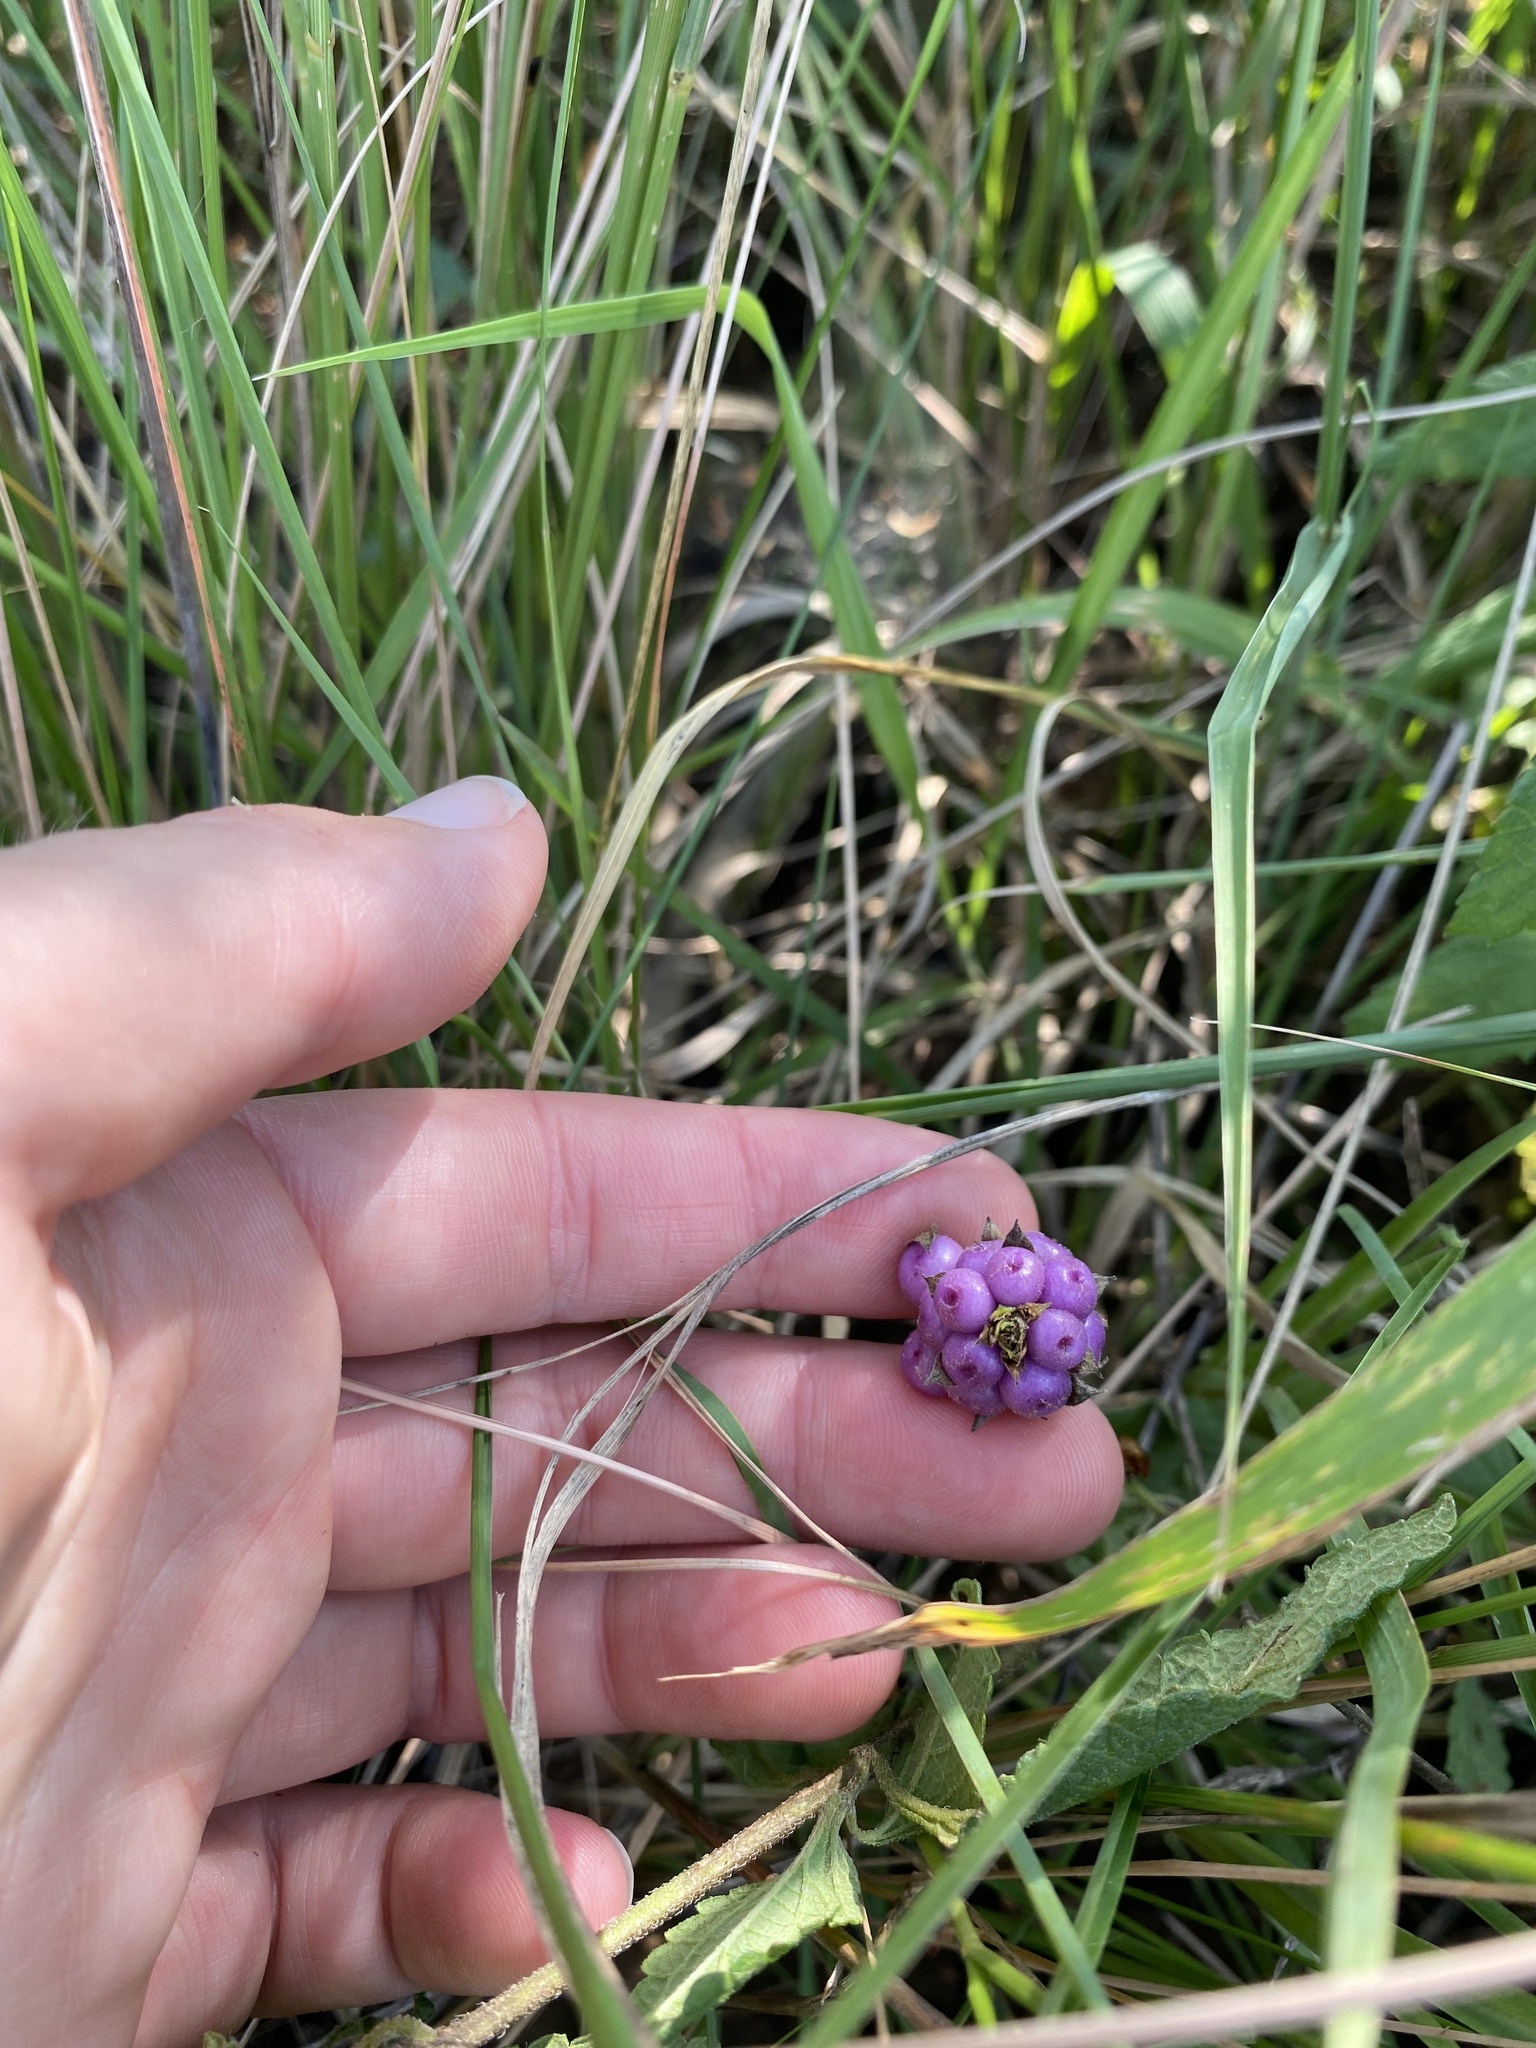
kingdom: Plantae
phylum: Tracheophyta
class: Magnoliopsida
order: Lamiales
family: Verbenaceae
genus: Lantana
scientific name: Lantana rugosa
